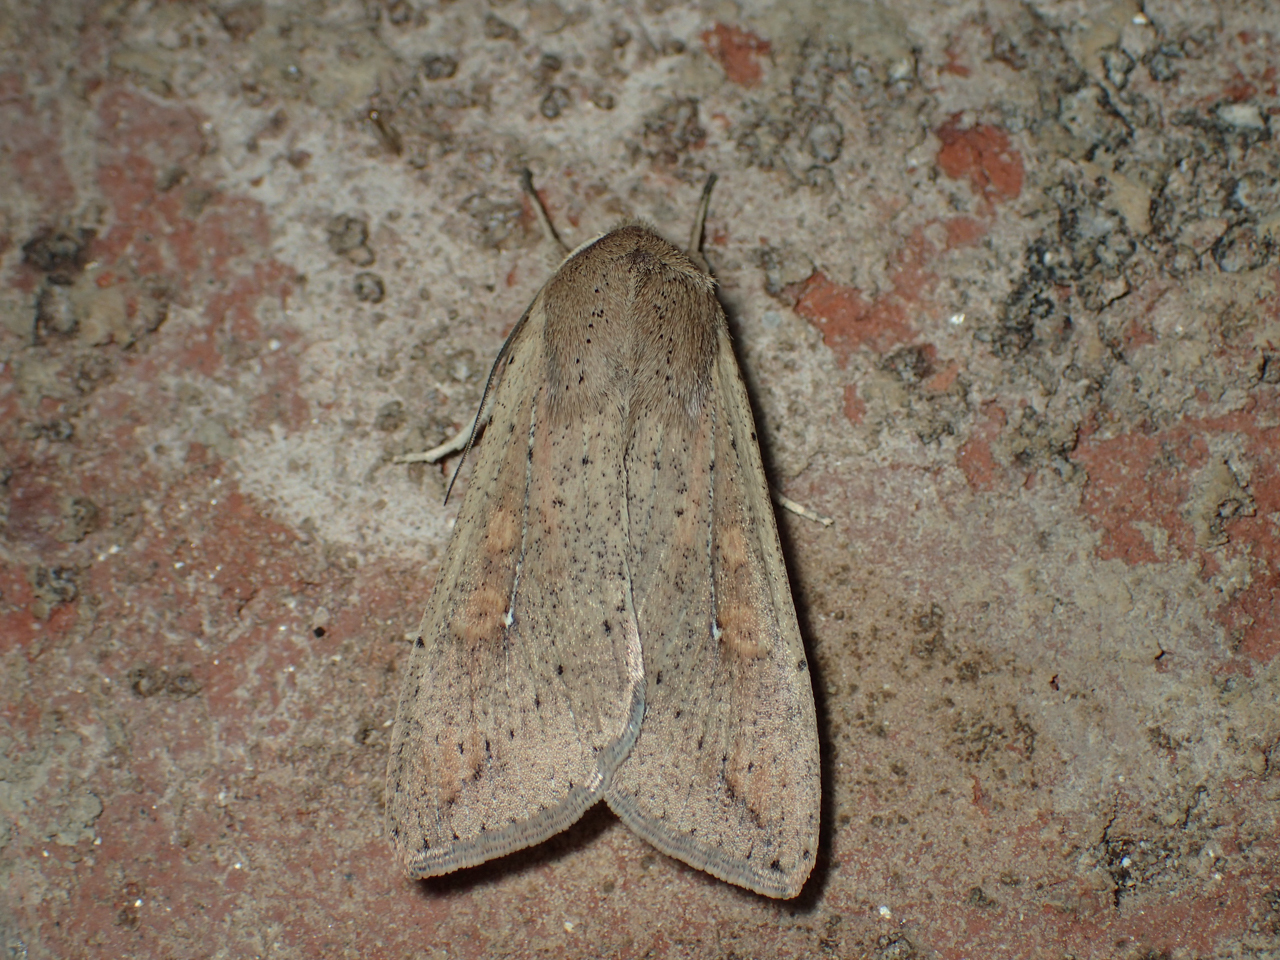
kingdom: Animalia
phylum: Arthropoda
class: Insecta
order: Lepidoptera
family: Noctuidae
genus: Mythimna
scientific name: Mythimna unipuncta
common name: White-speck
